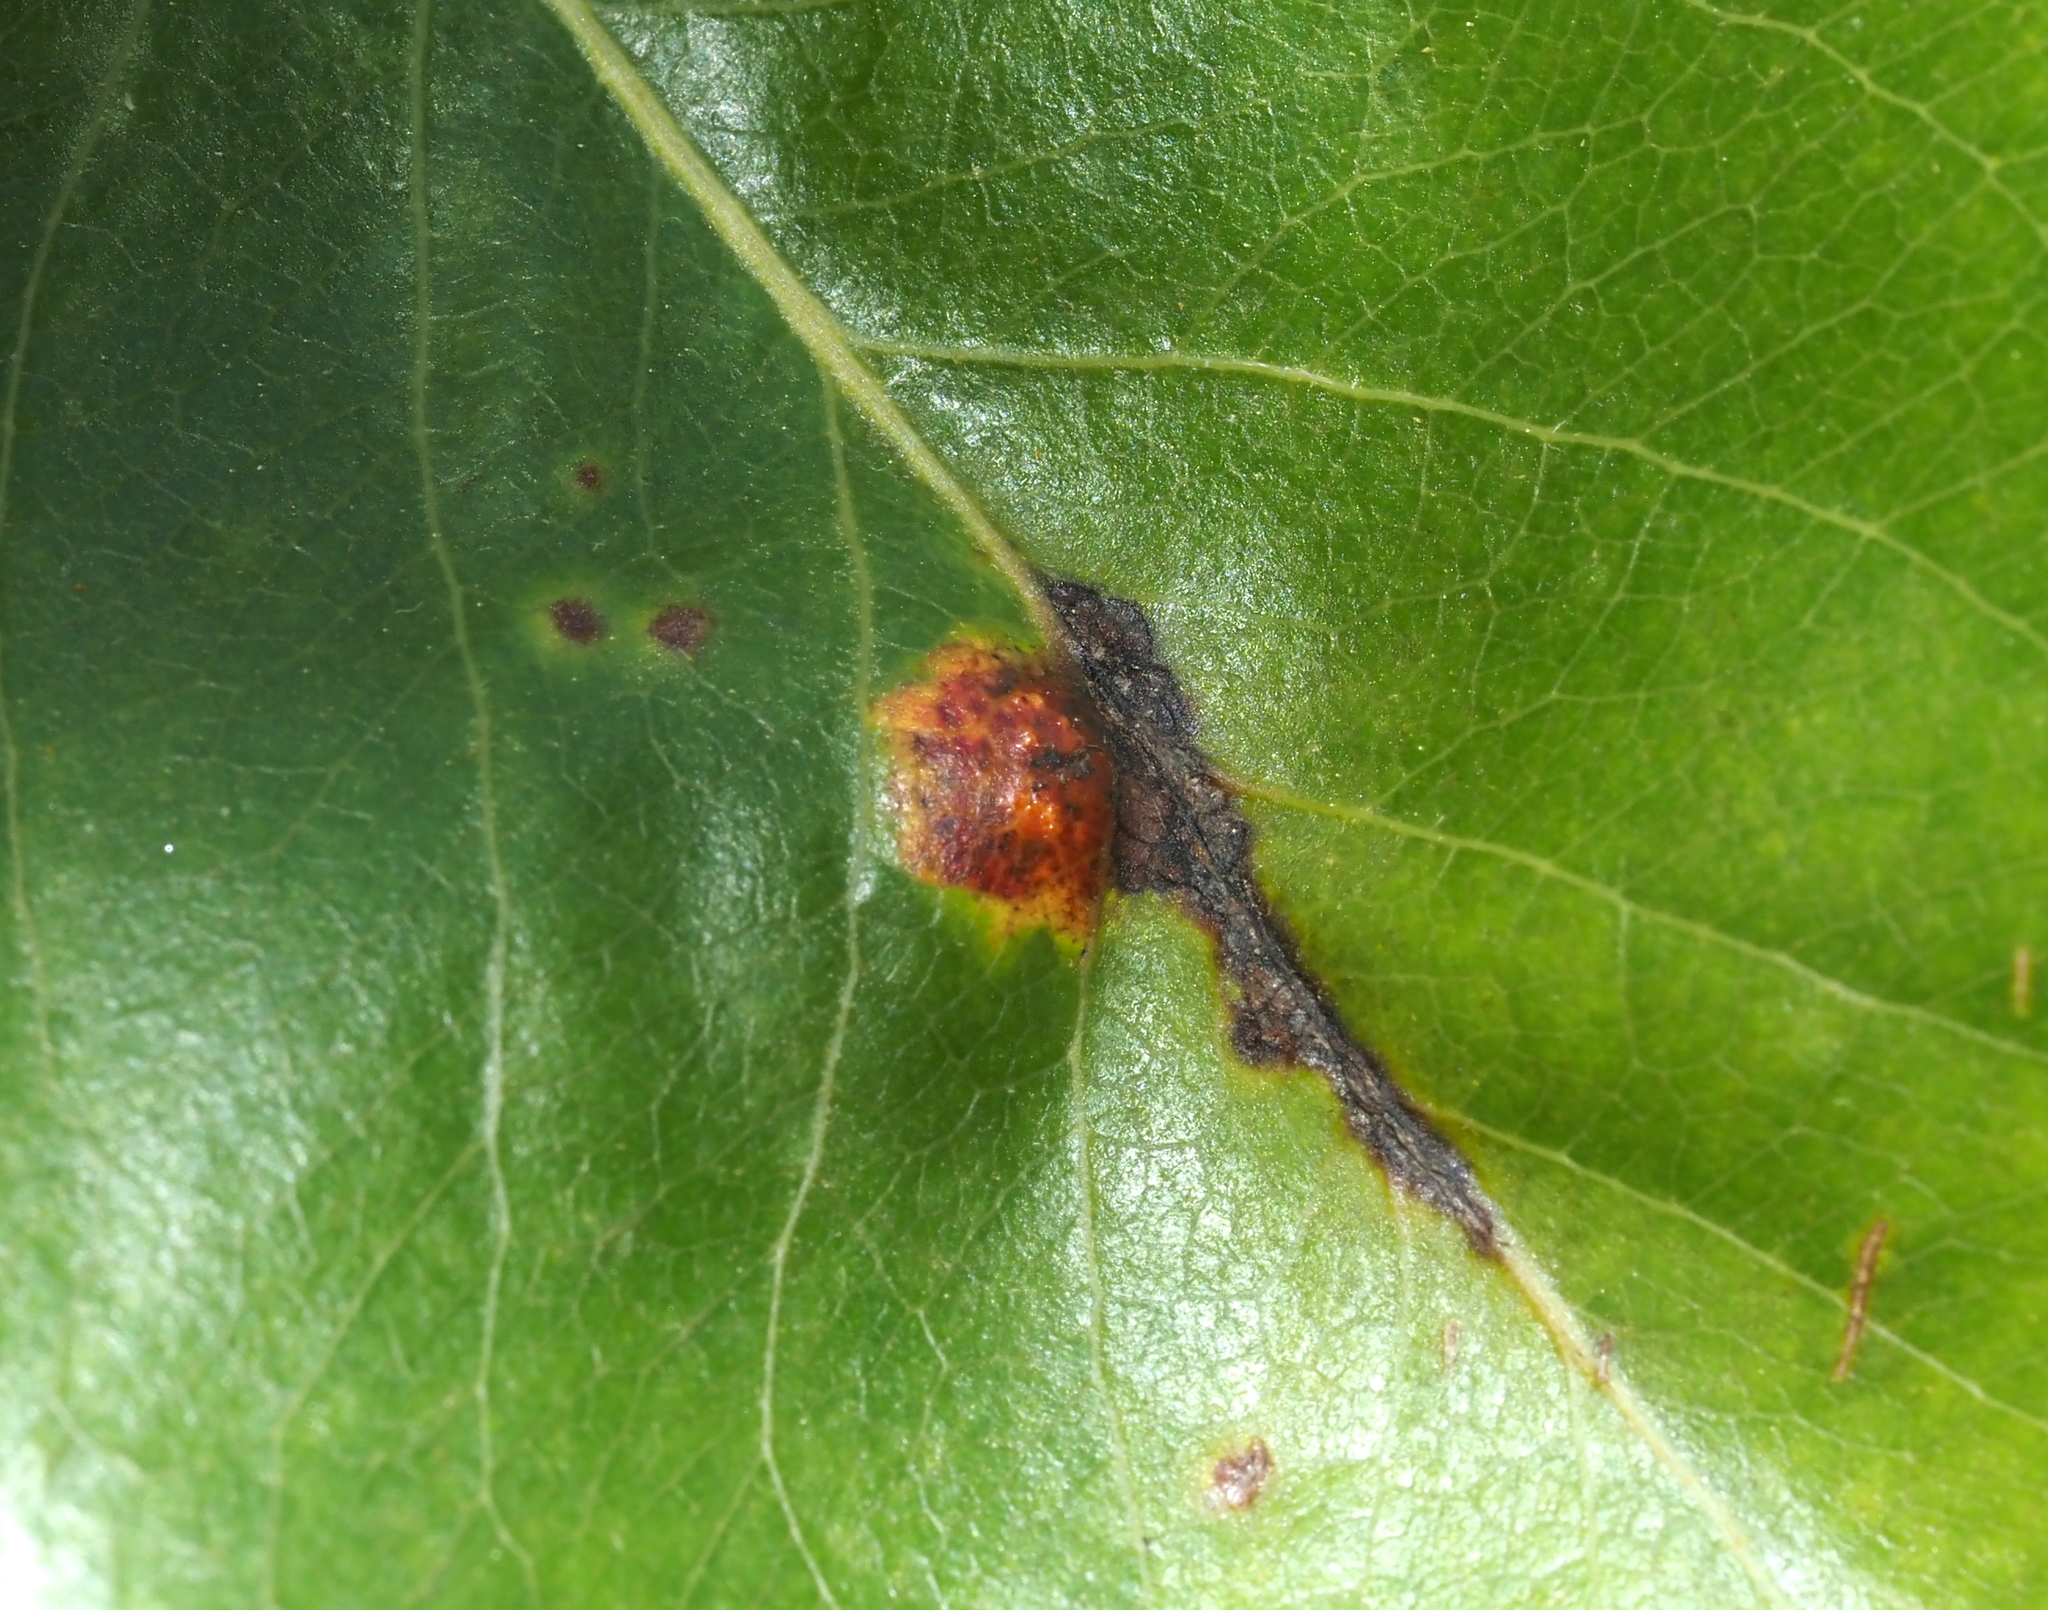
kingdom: Fungi
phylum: Basidiomycota
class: Pucciniomycetes
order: Pucciniales
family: Gymnosporangiaceae
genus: Gymnosporangium
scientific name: Gymnosporangium sabinae
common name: Pear trellis rust fungus
